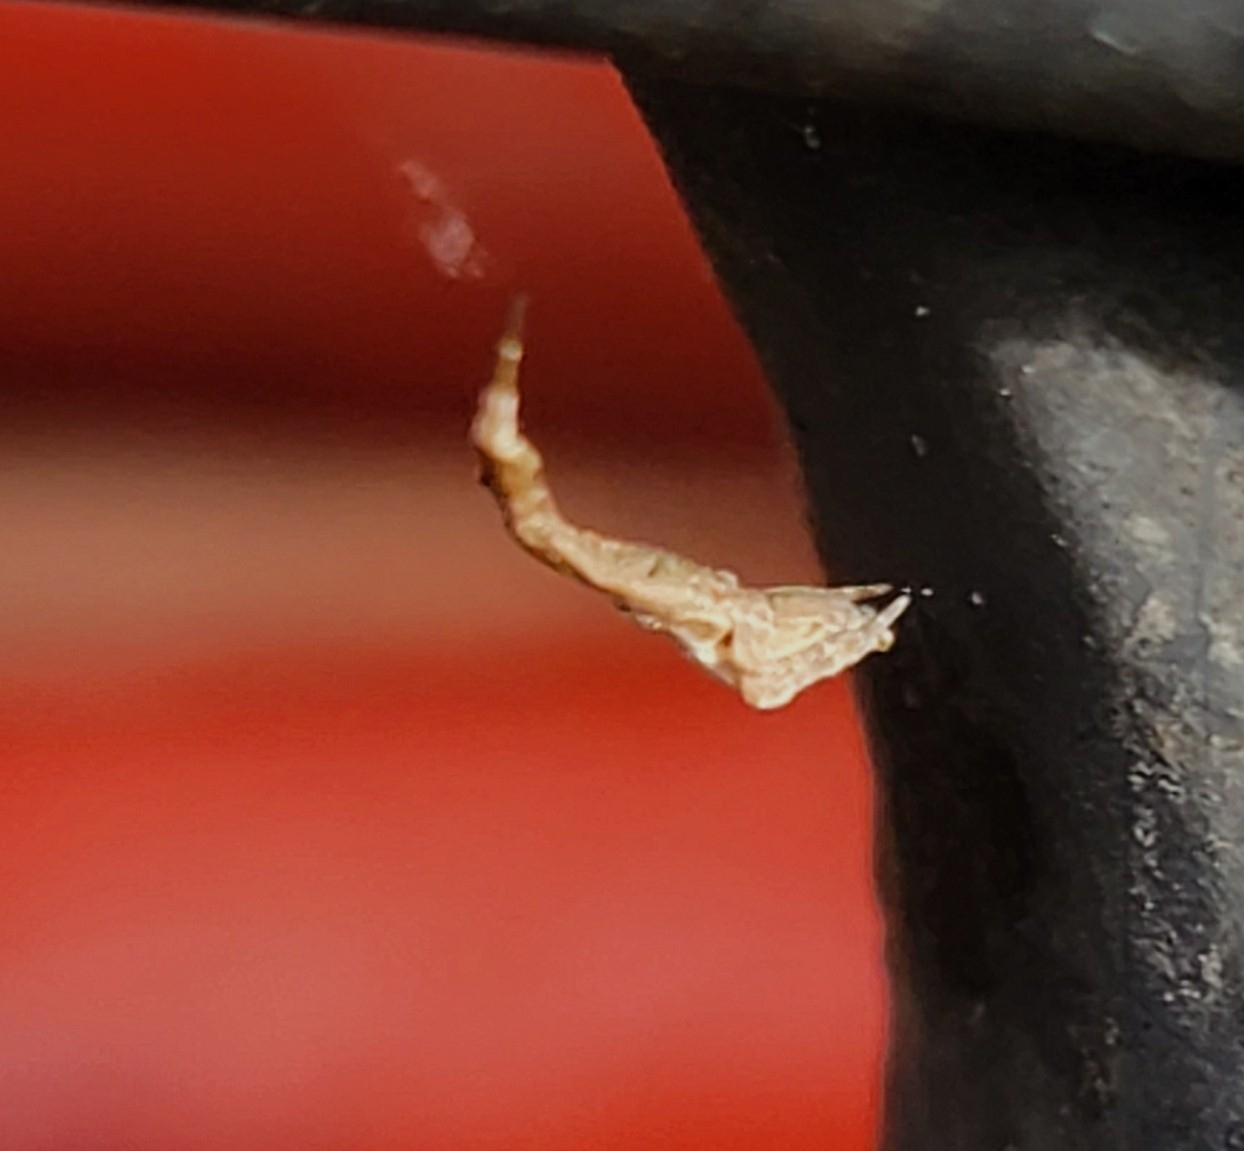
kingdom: Animalia
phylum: Arthropoda
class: Arachnida
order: Araneae
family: Uloboridae
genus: Uloborus
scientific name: Uloborus glomosus
